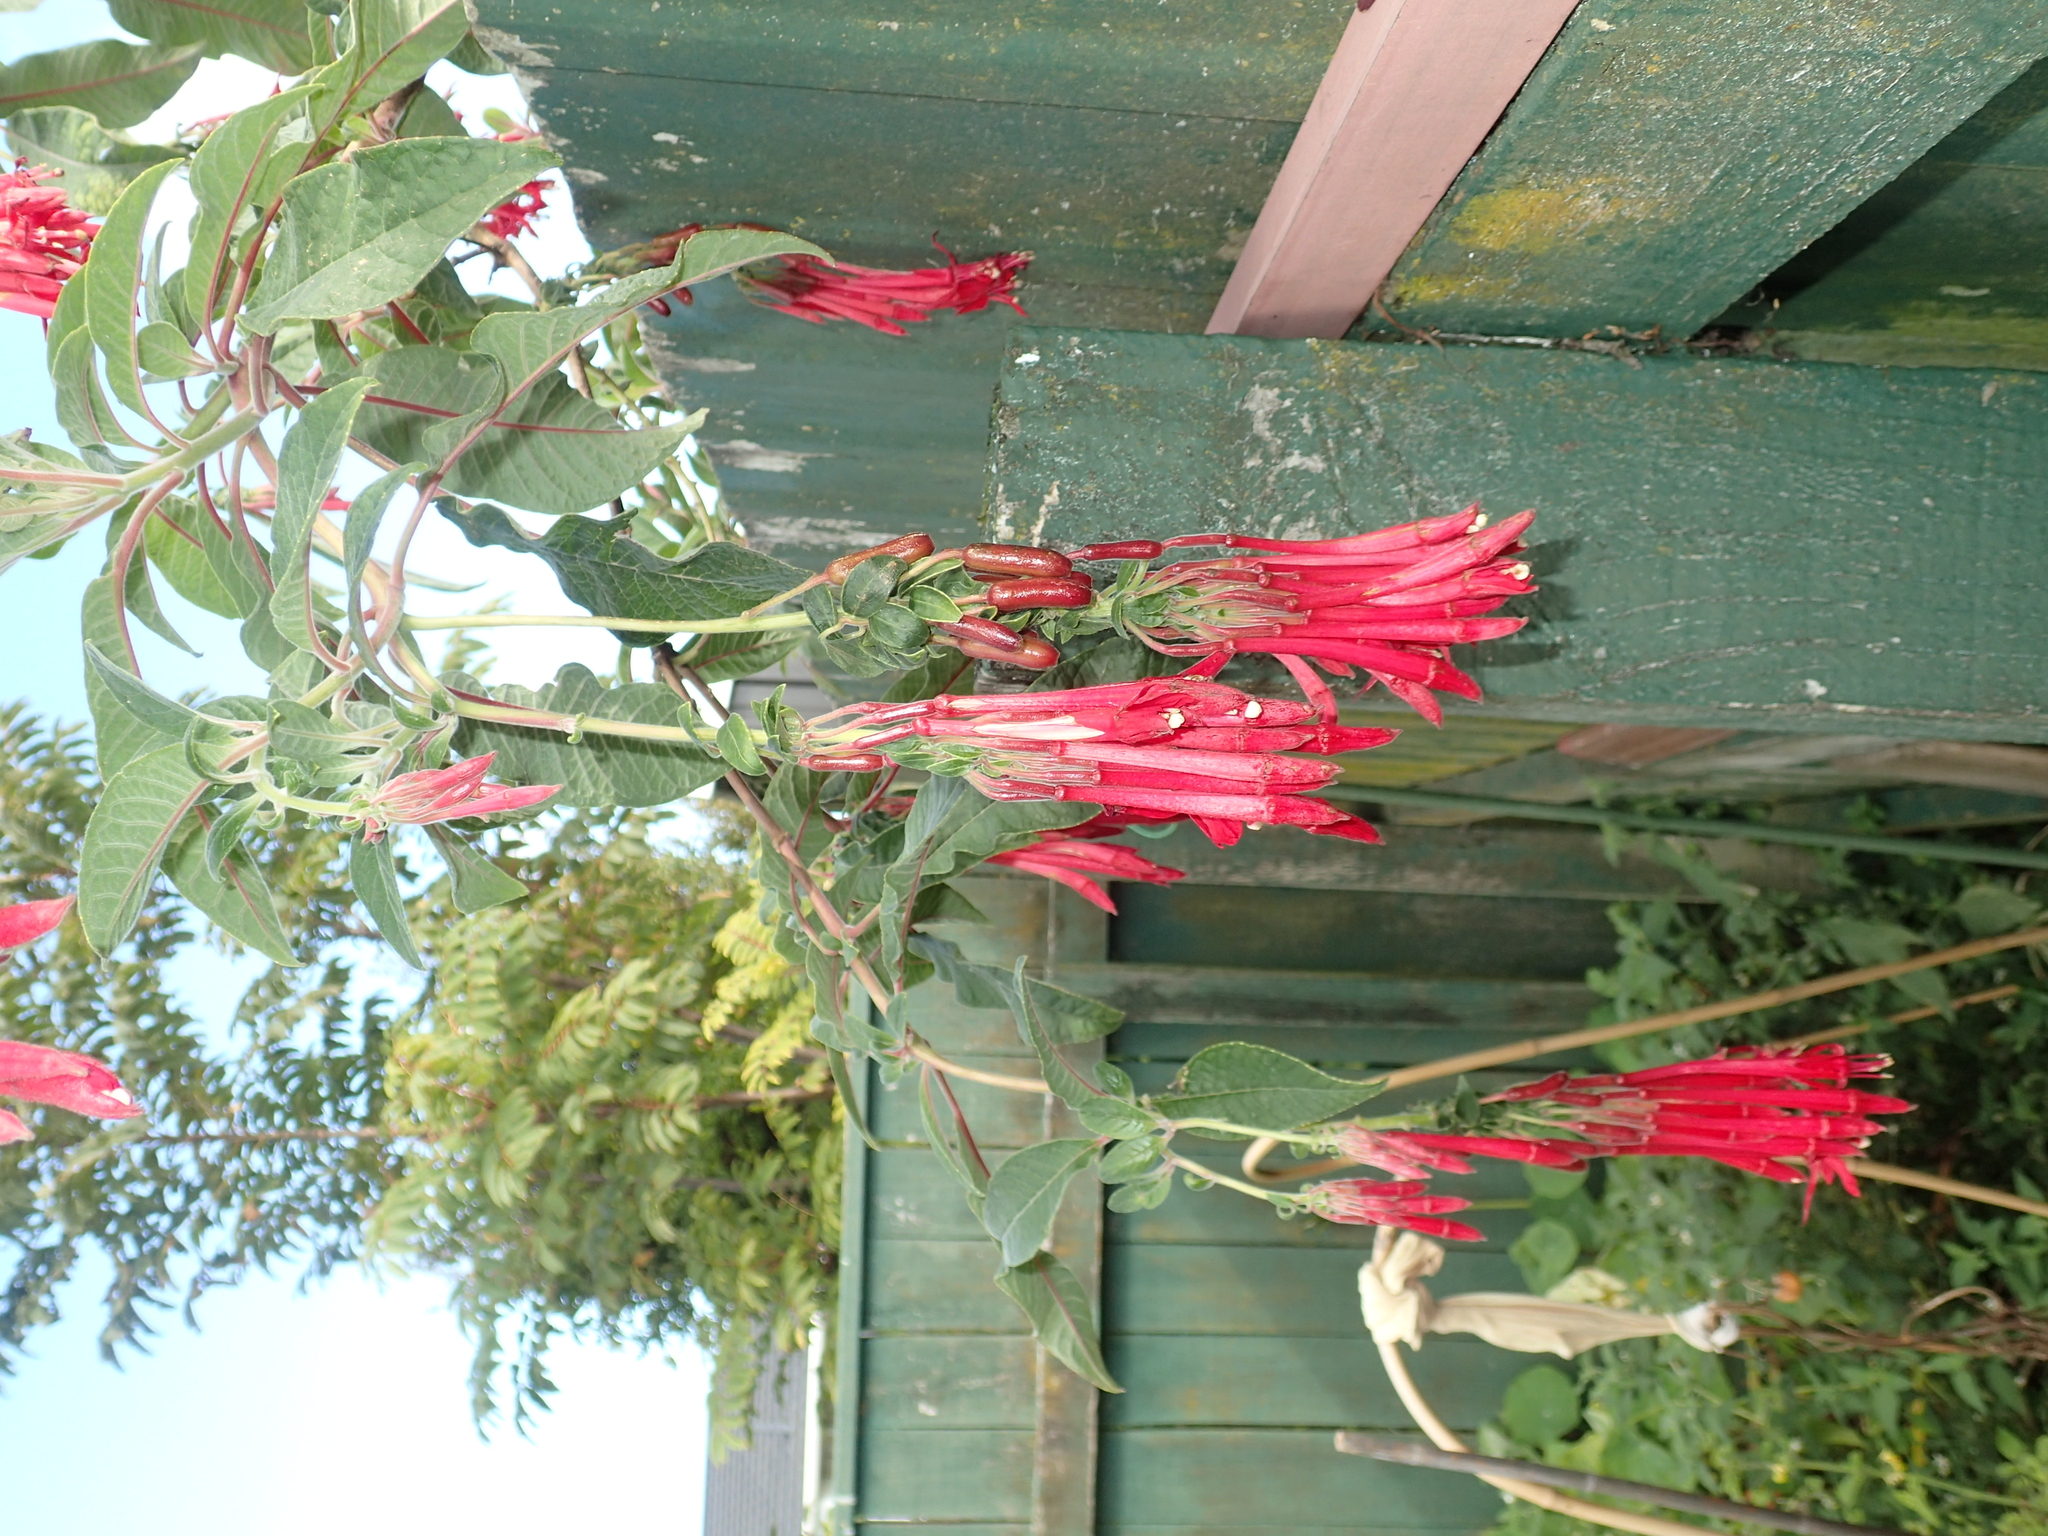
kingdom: Plantae
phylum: Tracheophyta
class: Magnoliopsida
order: Myrtales
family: Onagraceae
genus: Fuchsia
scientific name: Fuchsia boliviana
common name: Bolivian fuchsia
